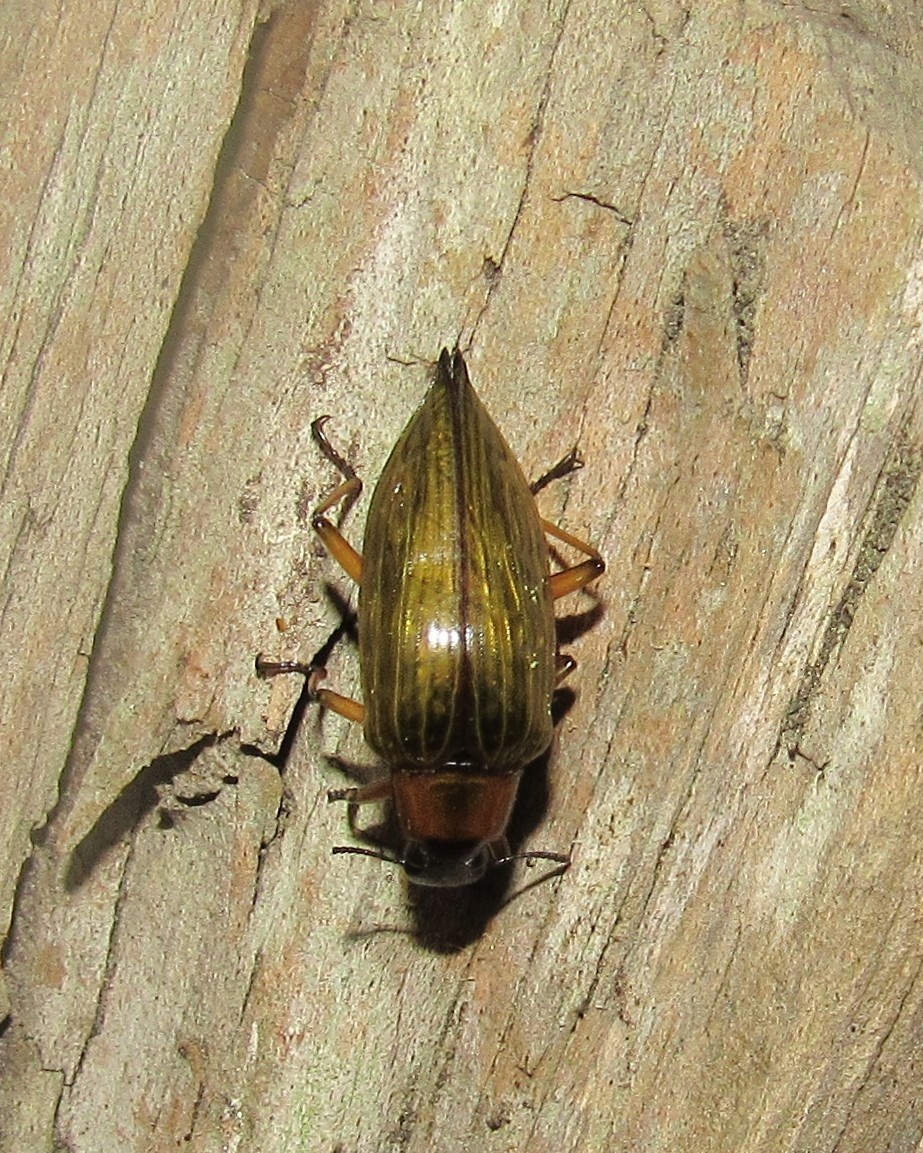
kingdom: Animalia
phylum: Arthropoda
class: Insecta
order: Coleoptera
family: Tenebrionidae
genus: Blapida
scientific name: Blapida pertyi
